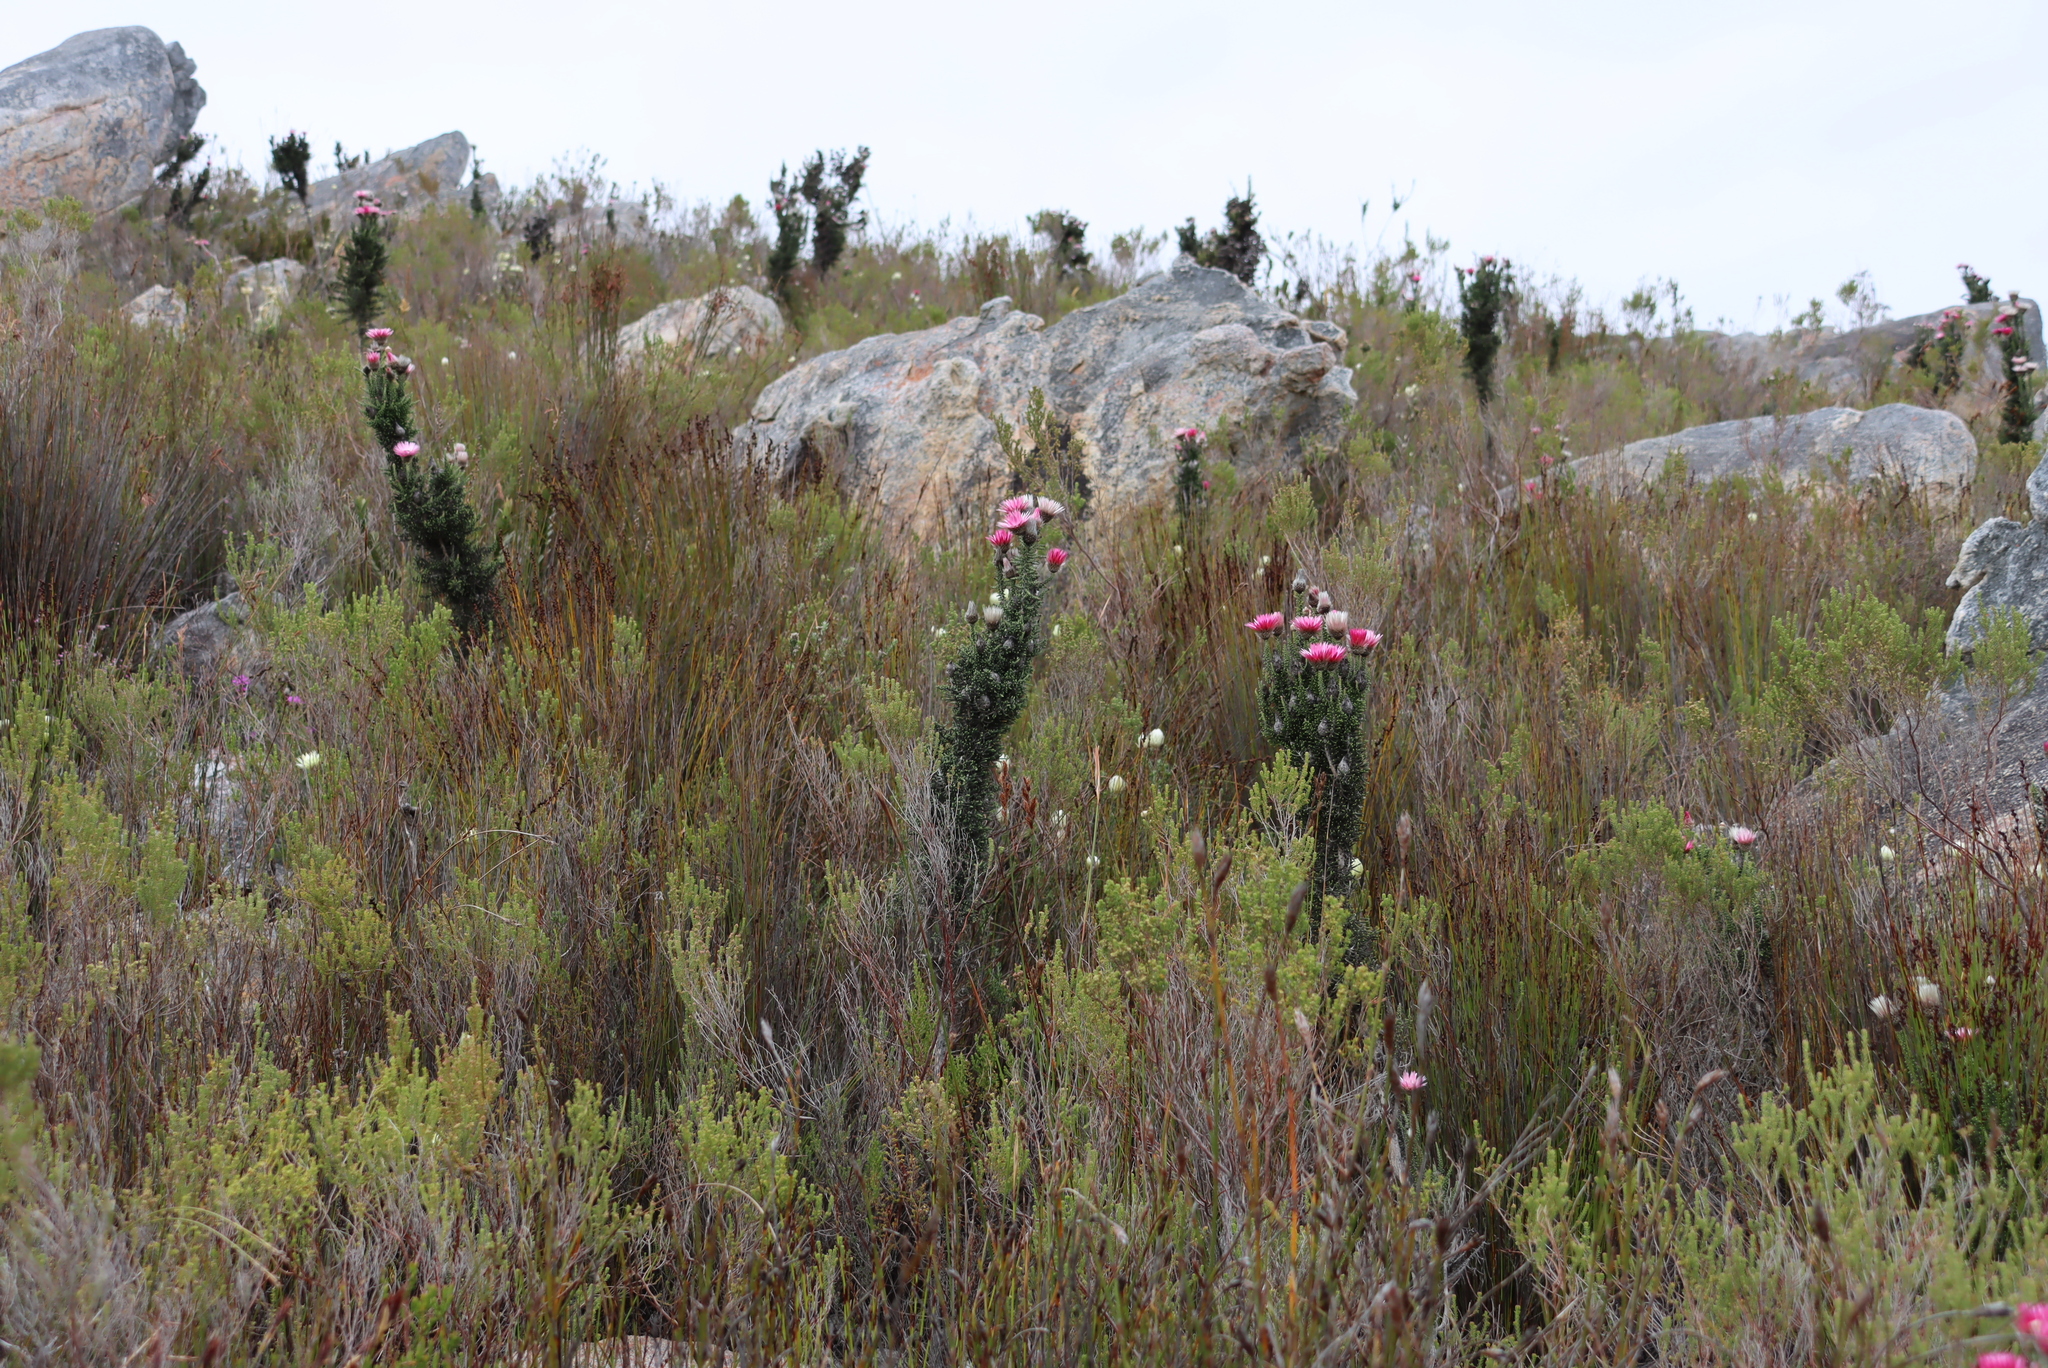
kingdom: Plantae
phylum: Tracheophyta
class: Magnoliopsida
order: Asterales
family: Asteraceae
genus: Phaenocoma
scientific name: Phaenocoma prolifera
